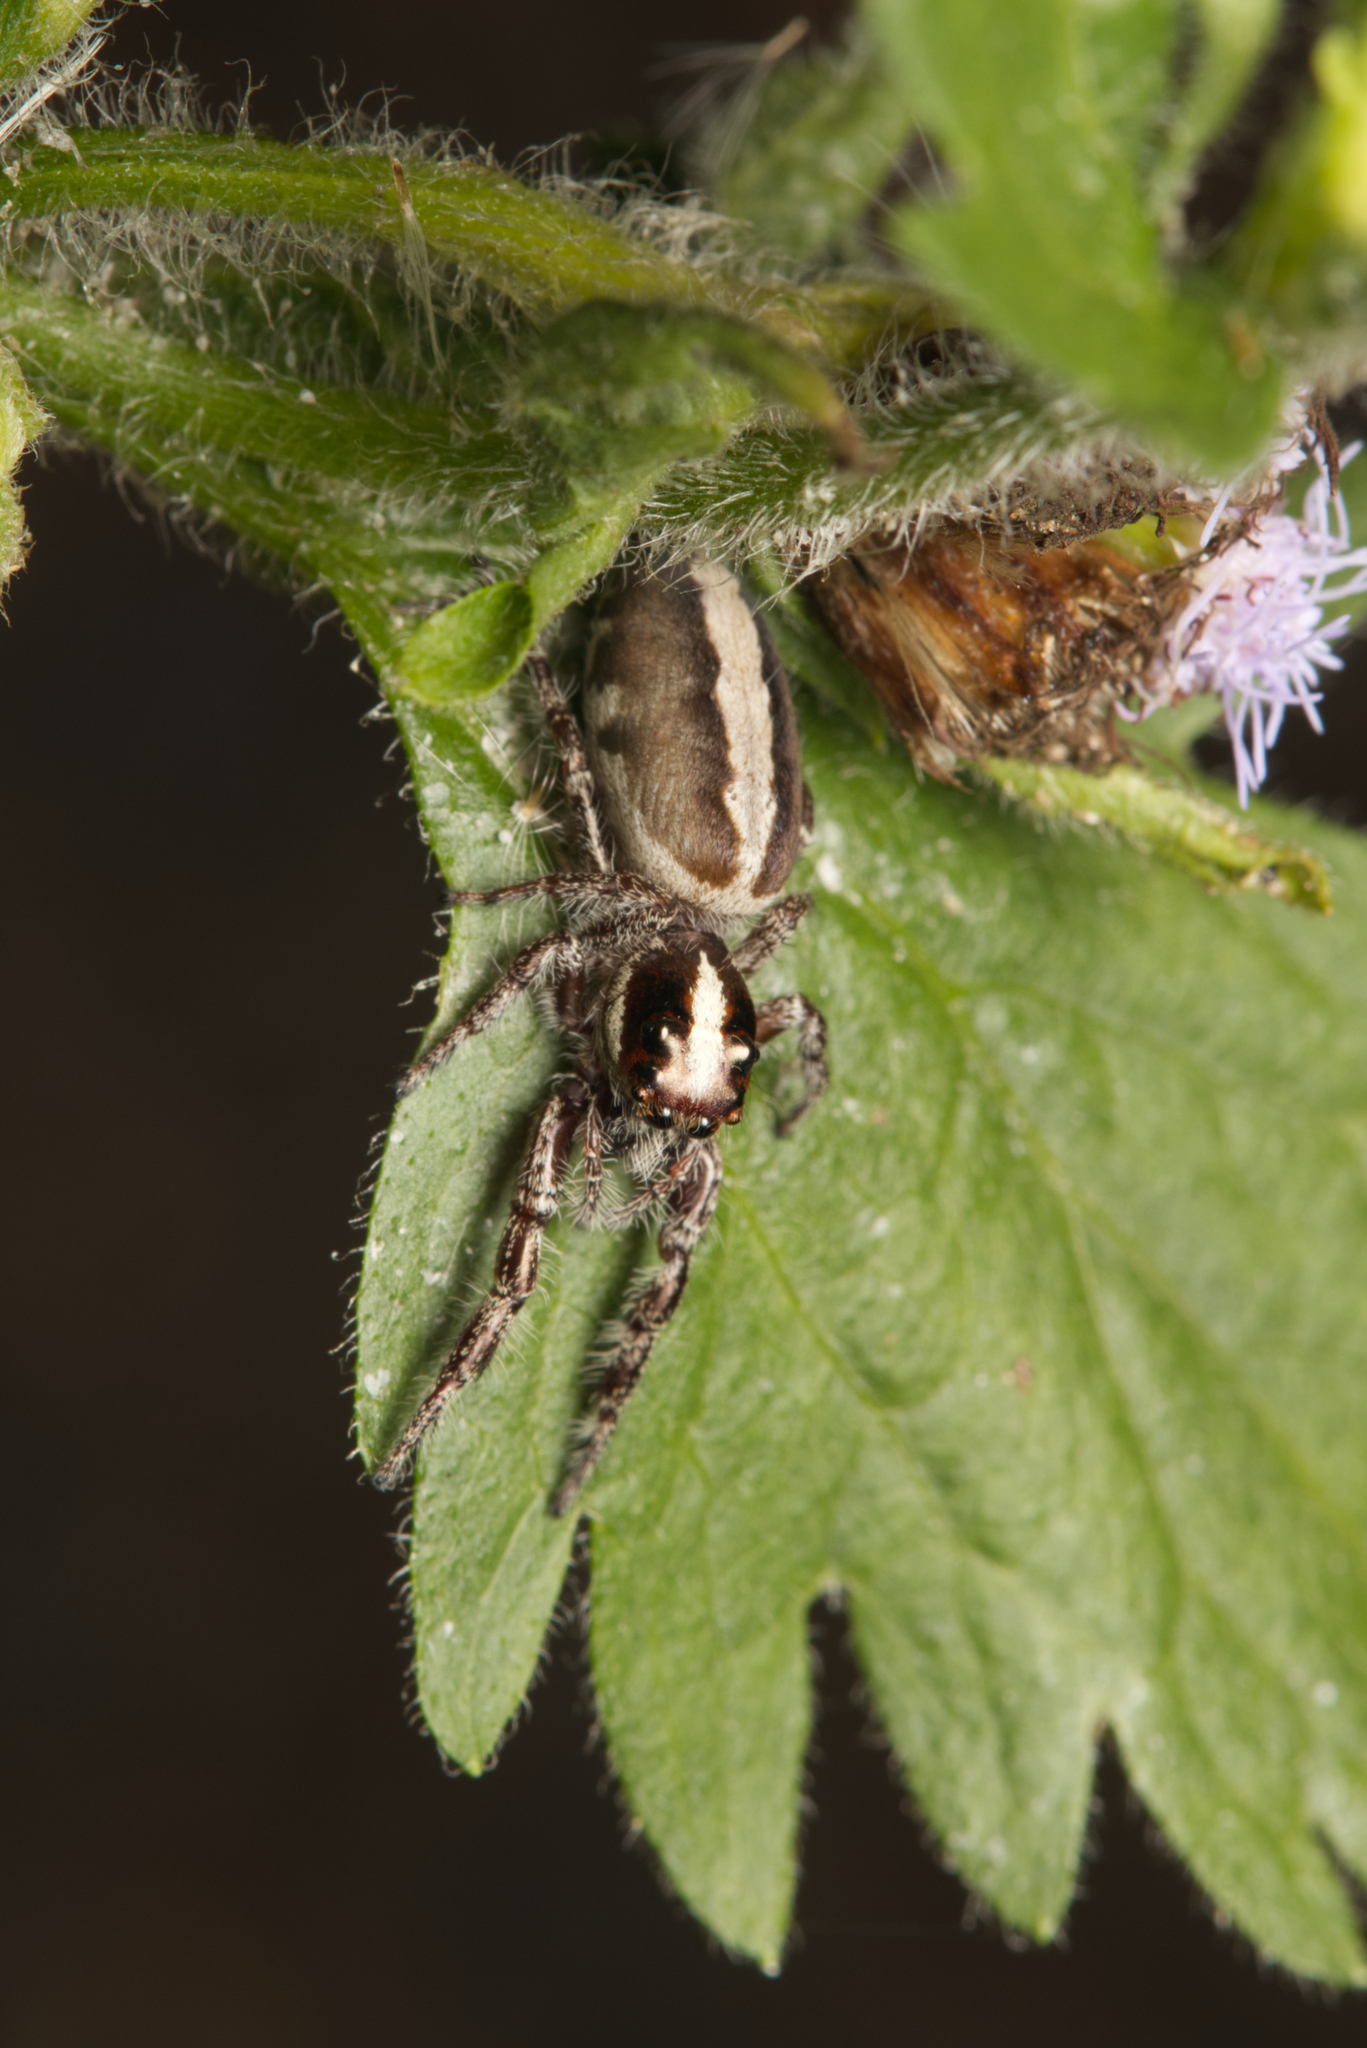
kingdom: Animalia
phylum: Arthropoda
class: Arachnida
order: Araneae
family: Salticidae
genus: Sandalodes
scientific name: Sandalodes bipenicillatus
